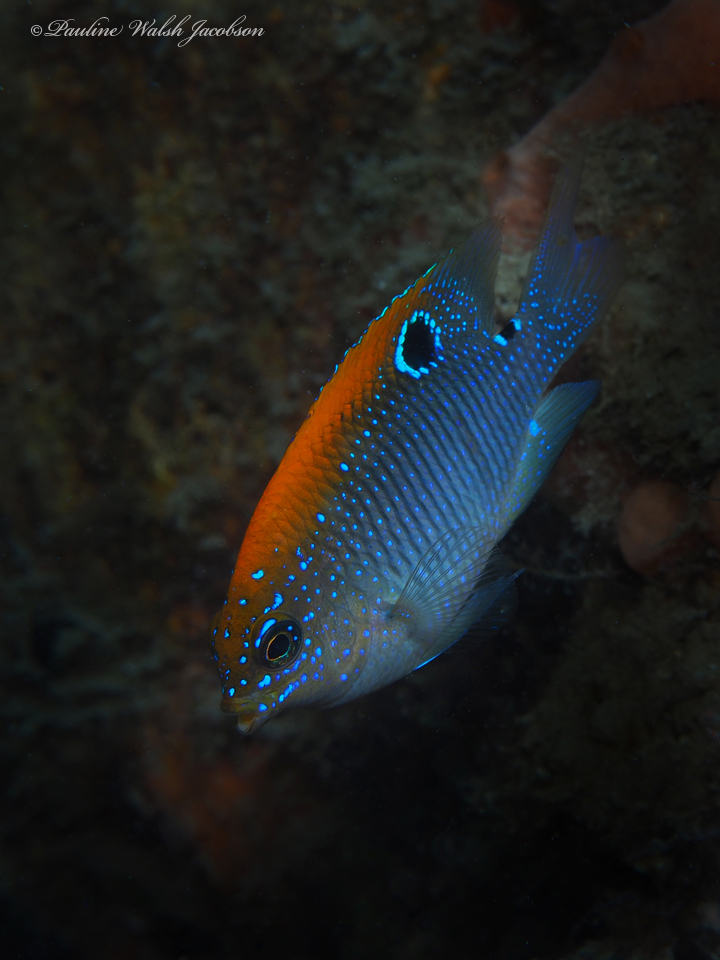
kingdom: Animalia
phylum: Chordata
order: Perciformes
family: Pomacentridae
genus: Stegastes
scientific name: Stegastes adustus
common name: Dusky damselfish
